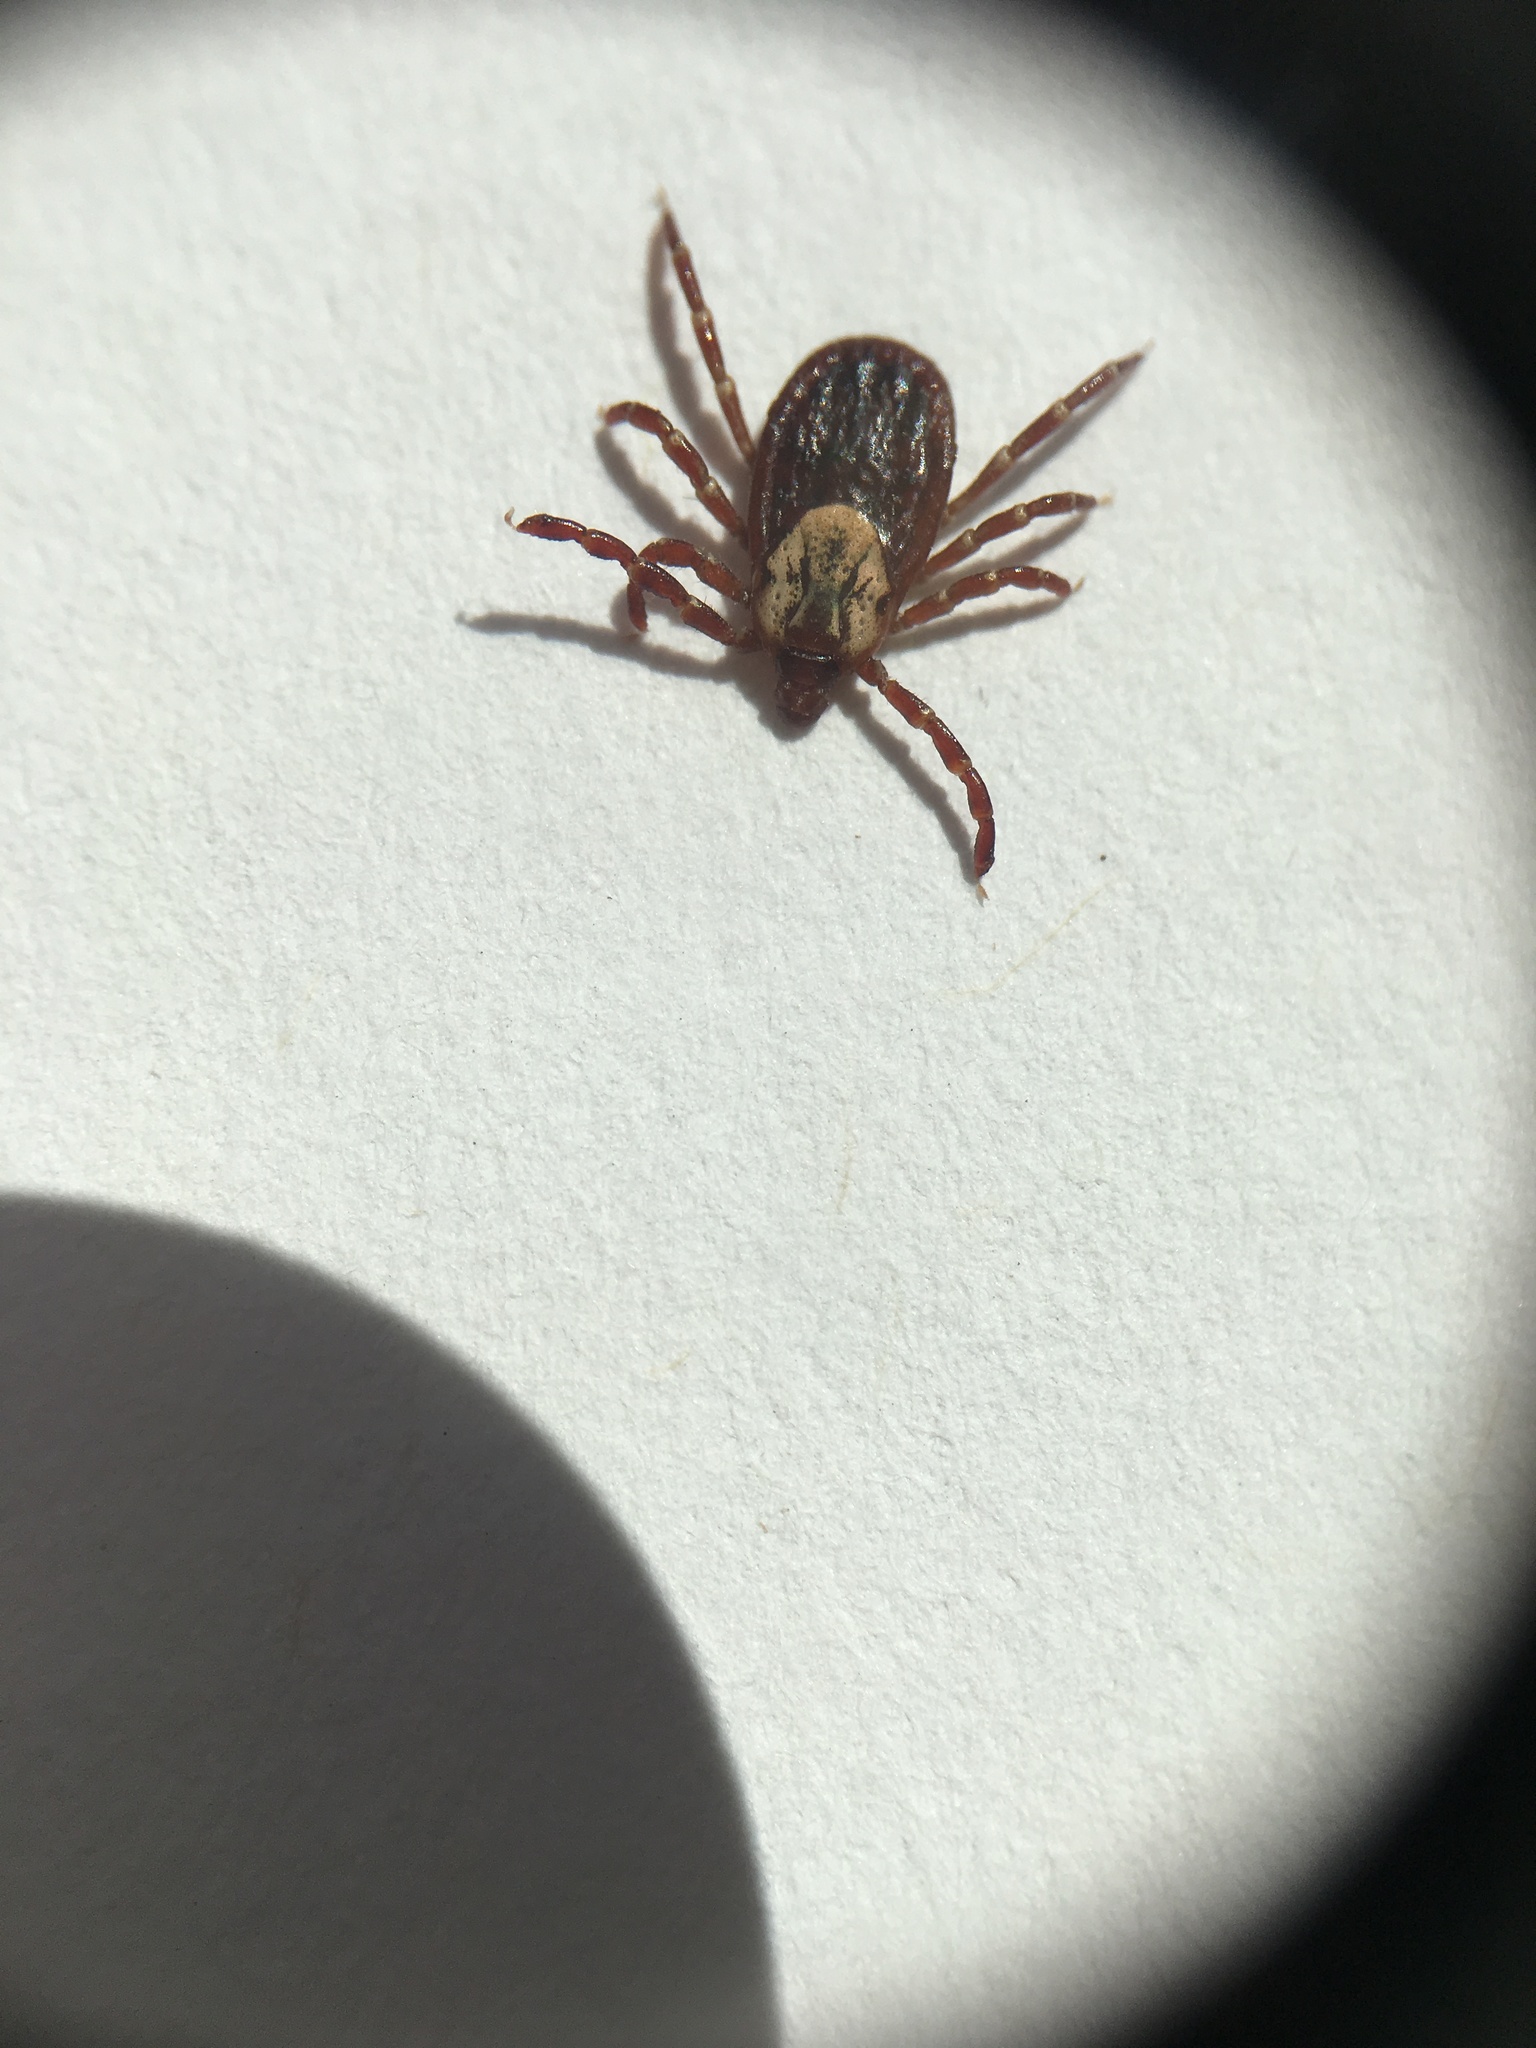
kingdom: Animalia
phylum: Arthropoda
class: Arachnida
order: Ixodida
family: Ixodidae
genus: Dermacentor
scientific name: Dermacentor variabilis
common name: American dog tick
